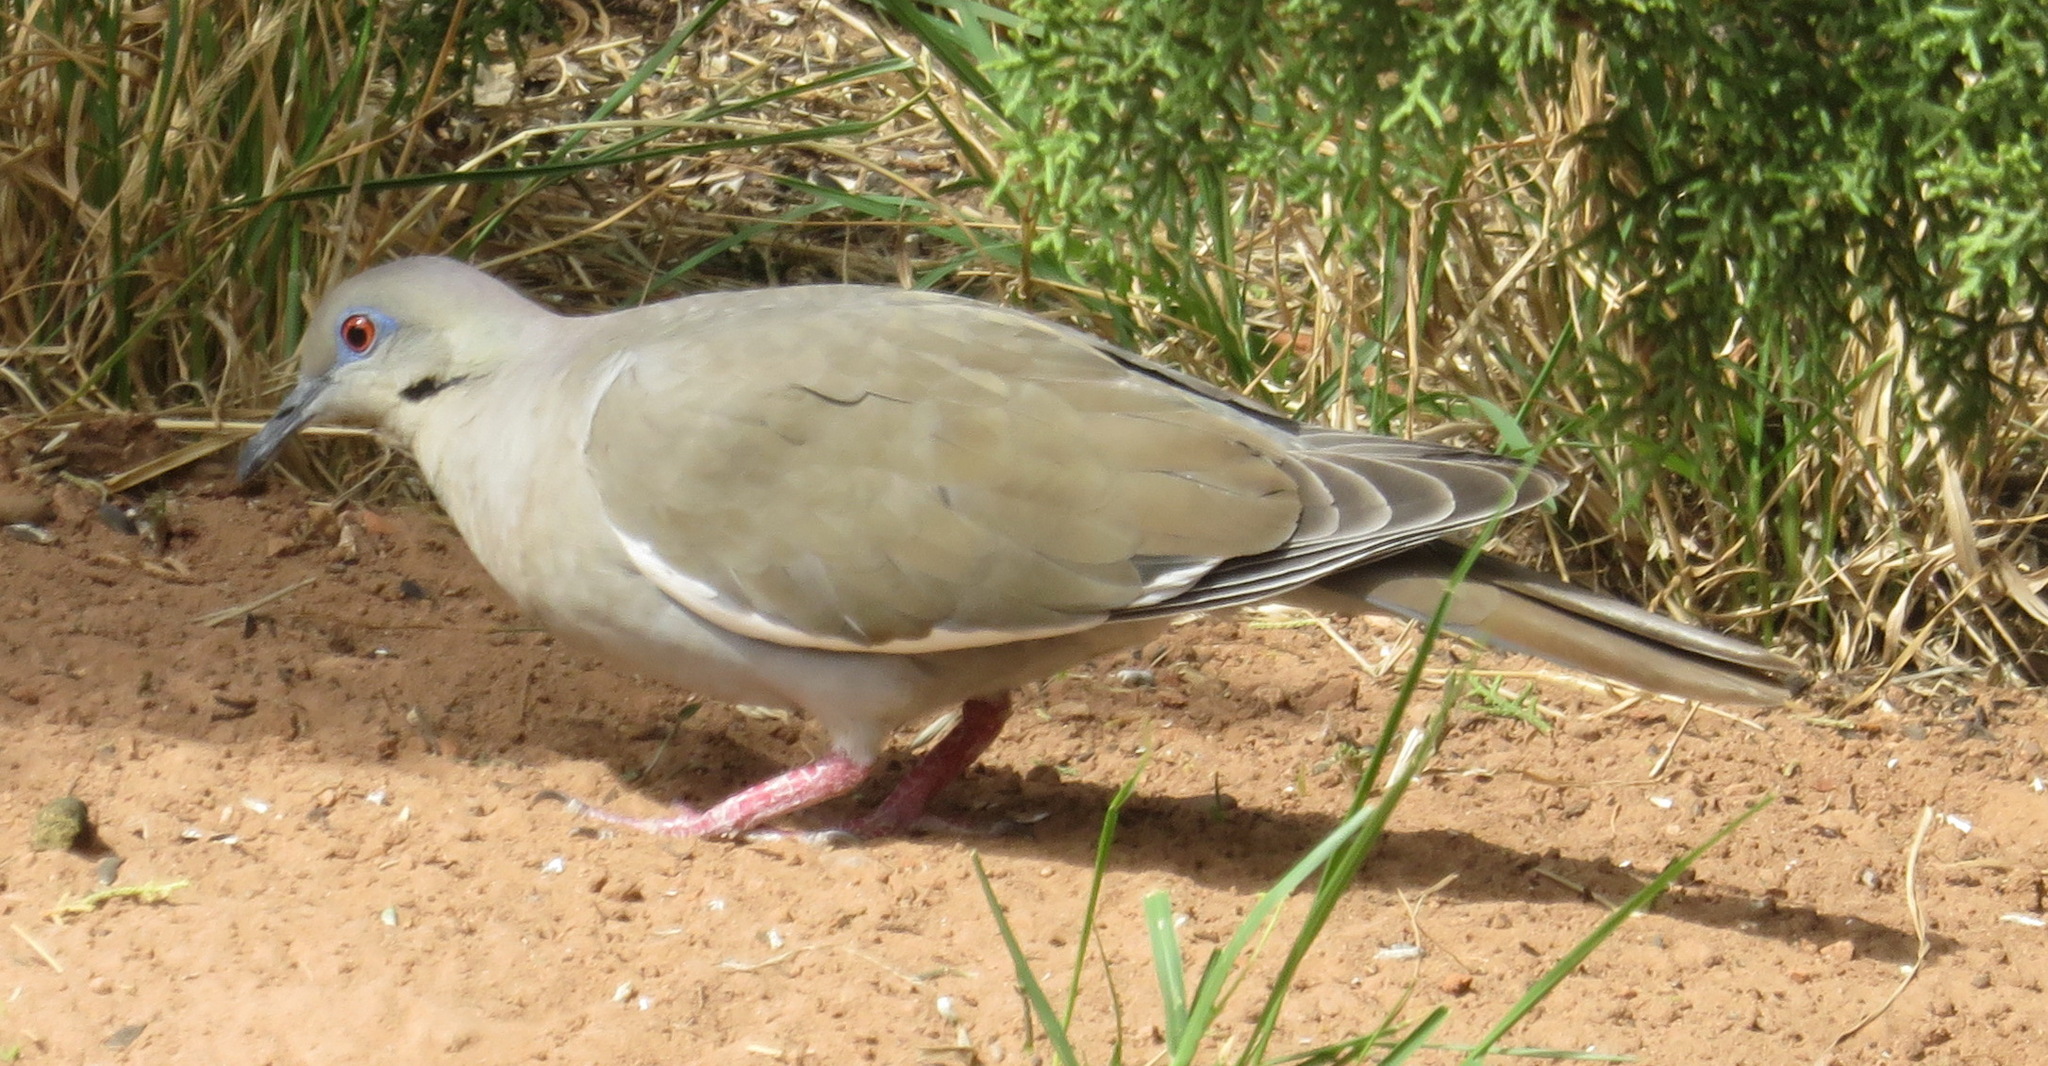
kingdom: Animalia
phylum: Chordata
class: Aves
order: Columbiformes
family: Columbidae
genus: Zenaida
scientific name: Zenaida asiatica
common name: White-winged dove
